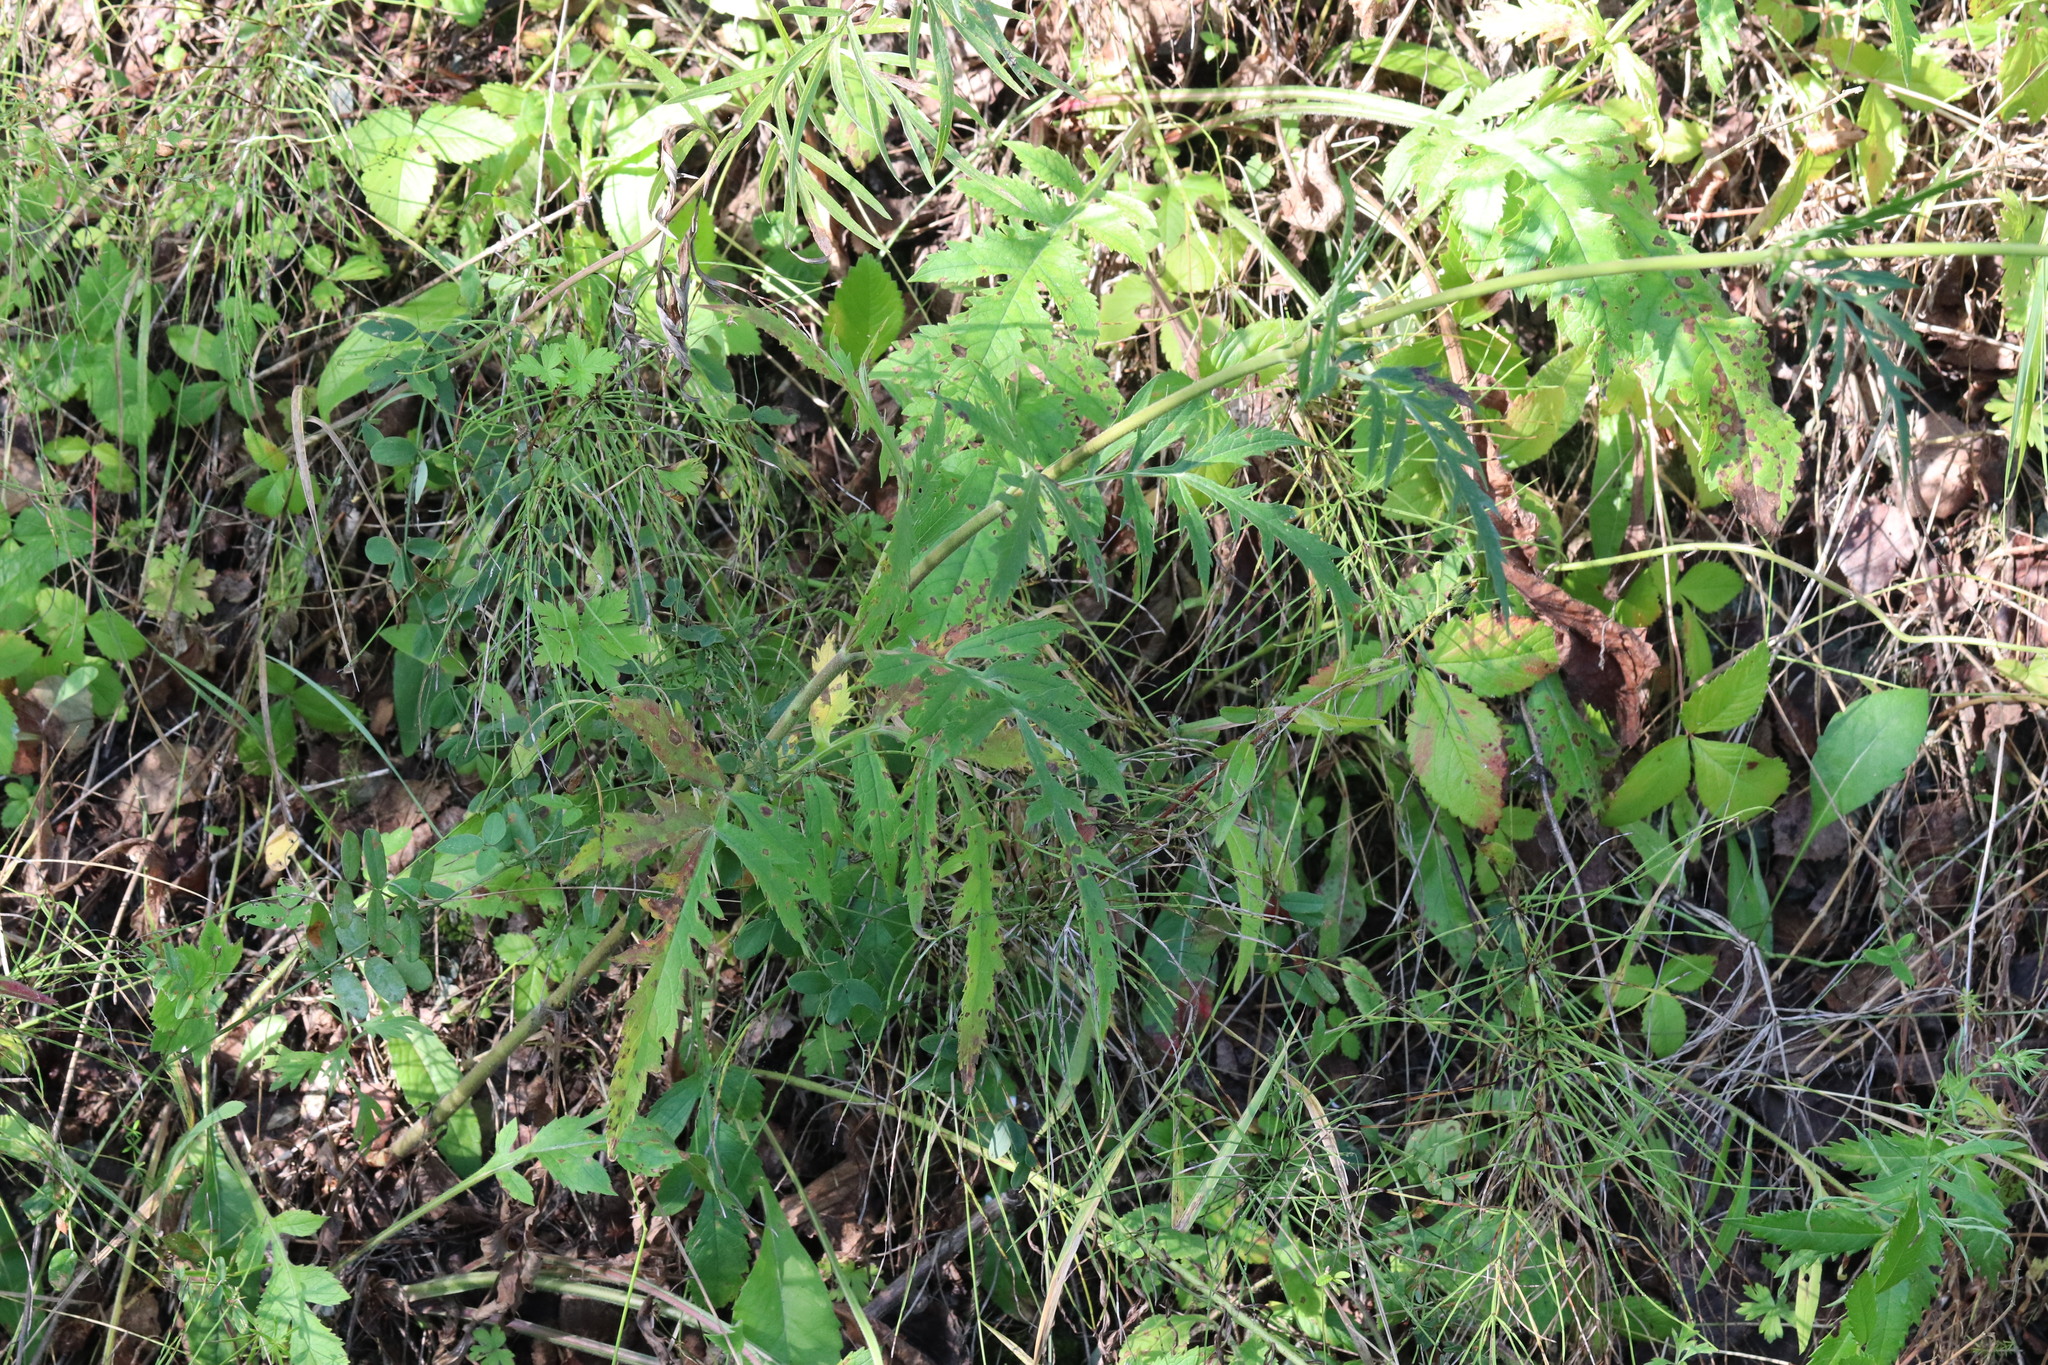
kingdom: Plantae
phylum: Tracheophyta
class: Magnoliopsida
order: Dipsacales
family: Caprifoliaceae
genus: Patrinia
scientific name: Patrinia scabiosifolia
